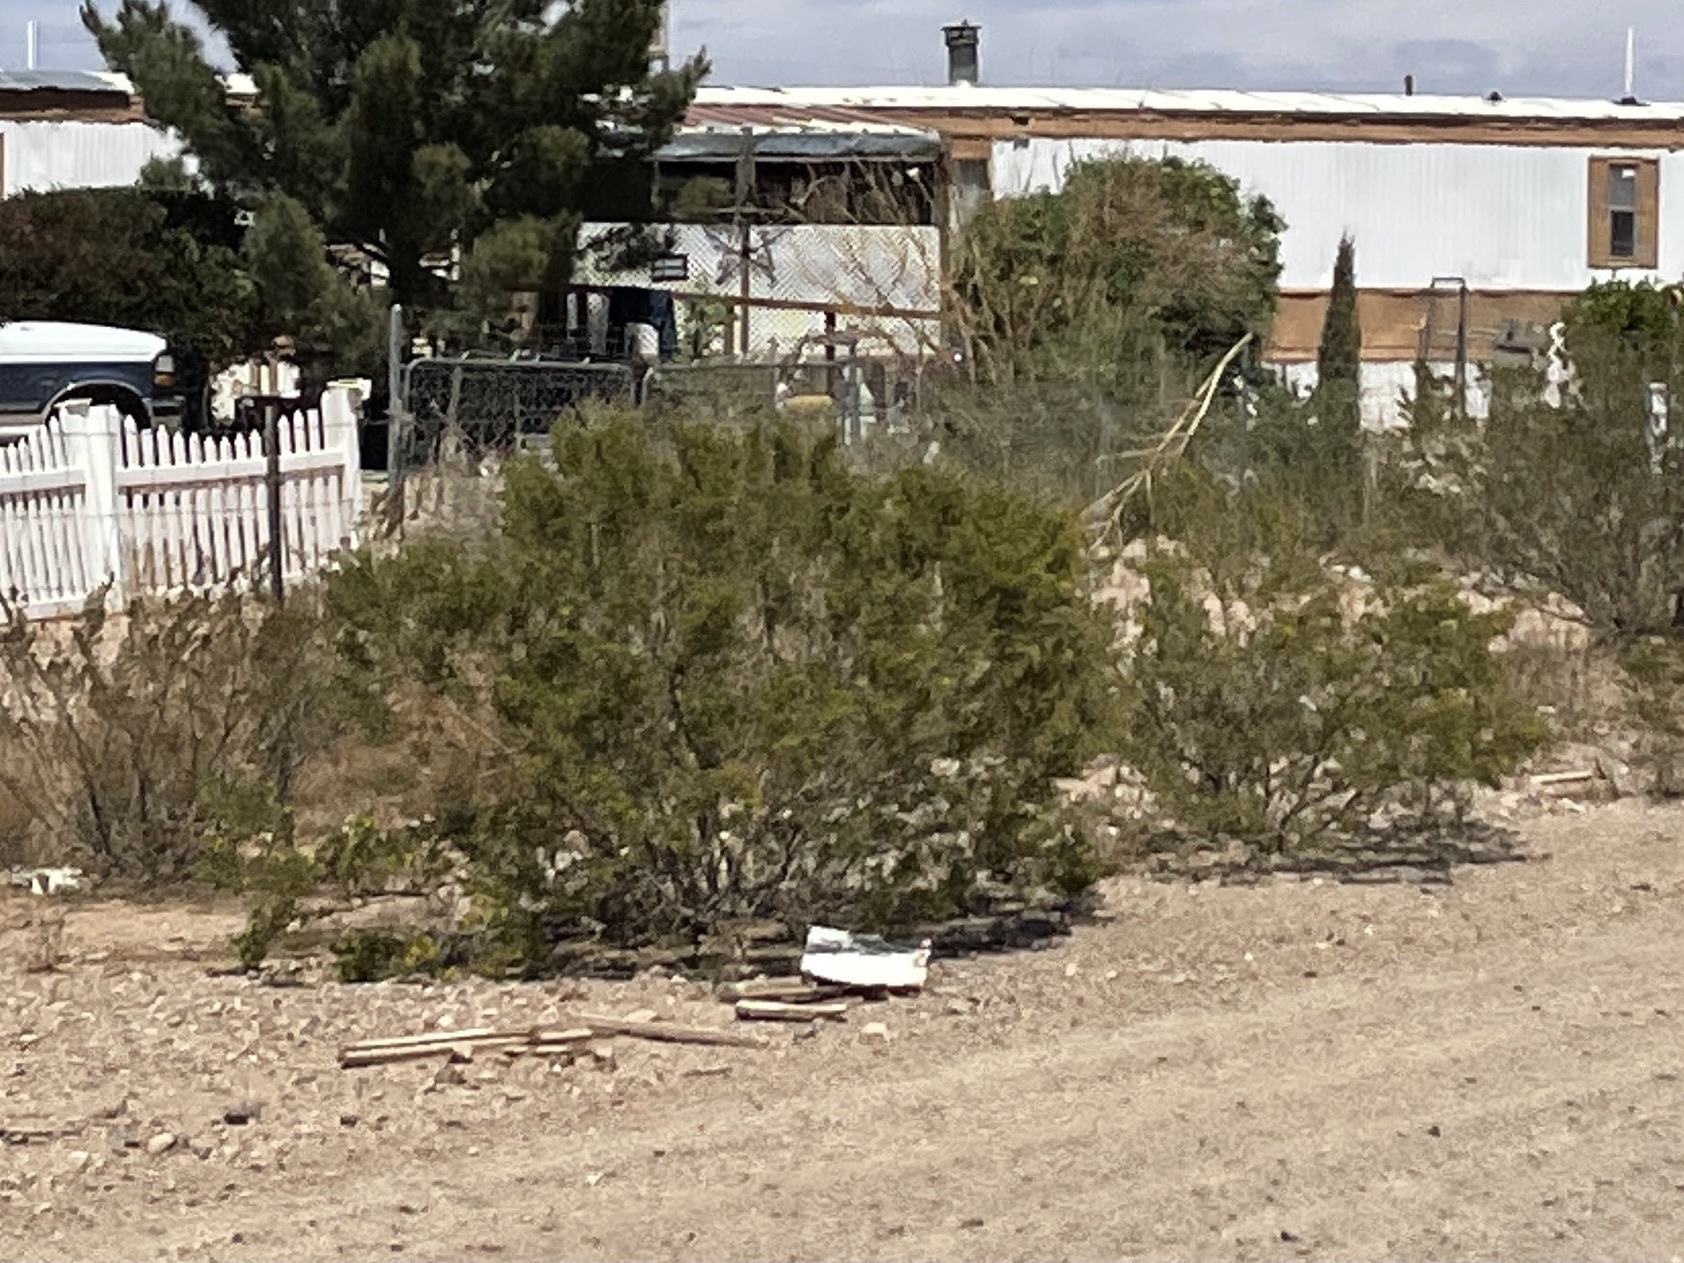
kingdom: Plantae
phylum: Tracheophyta
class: Magnoliopsida
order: Zygophyllales
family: Zygophyllaceae
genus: Larrea
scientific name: Larrea tridentata
